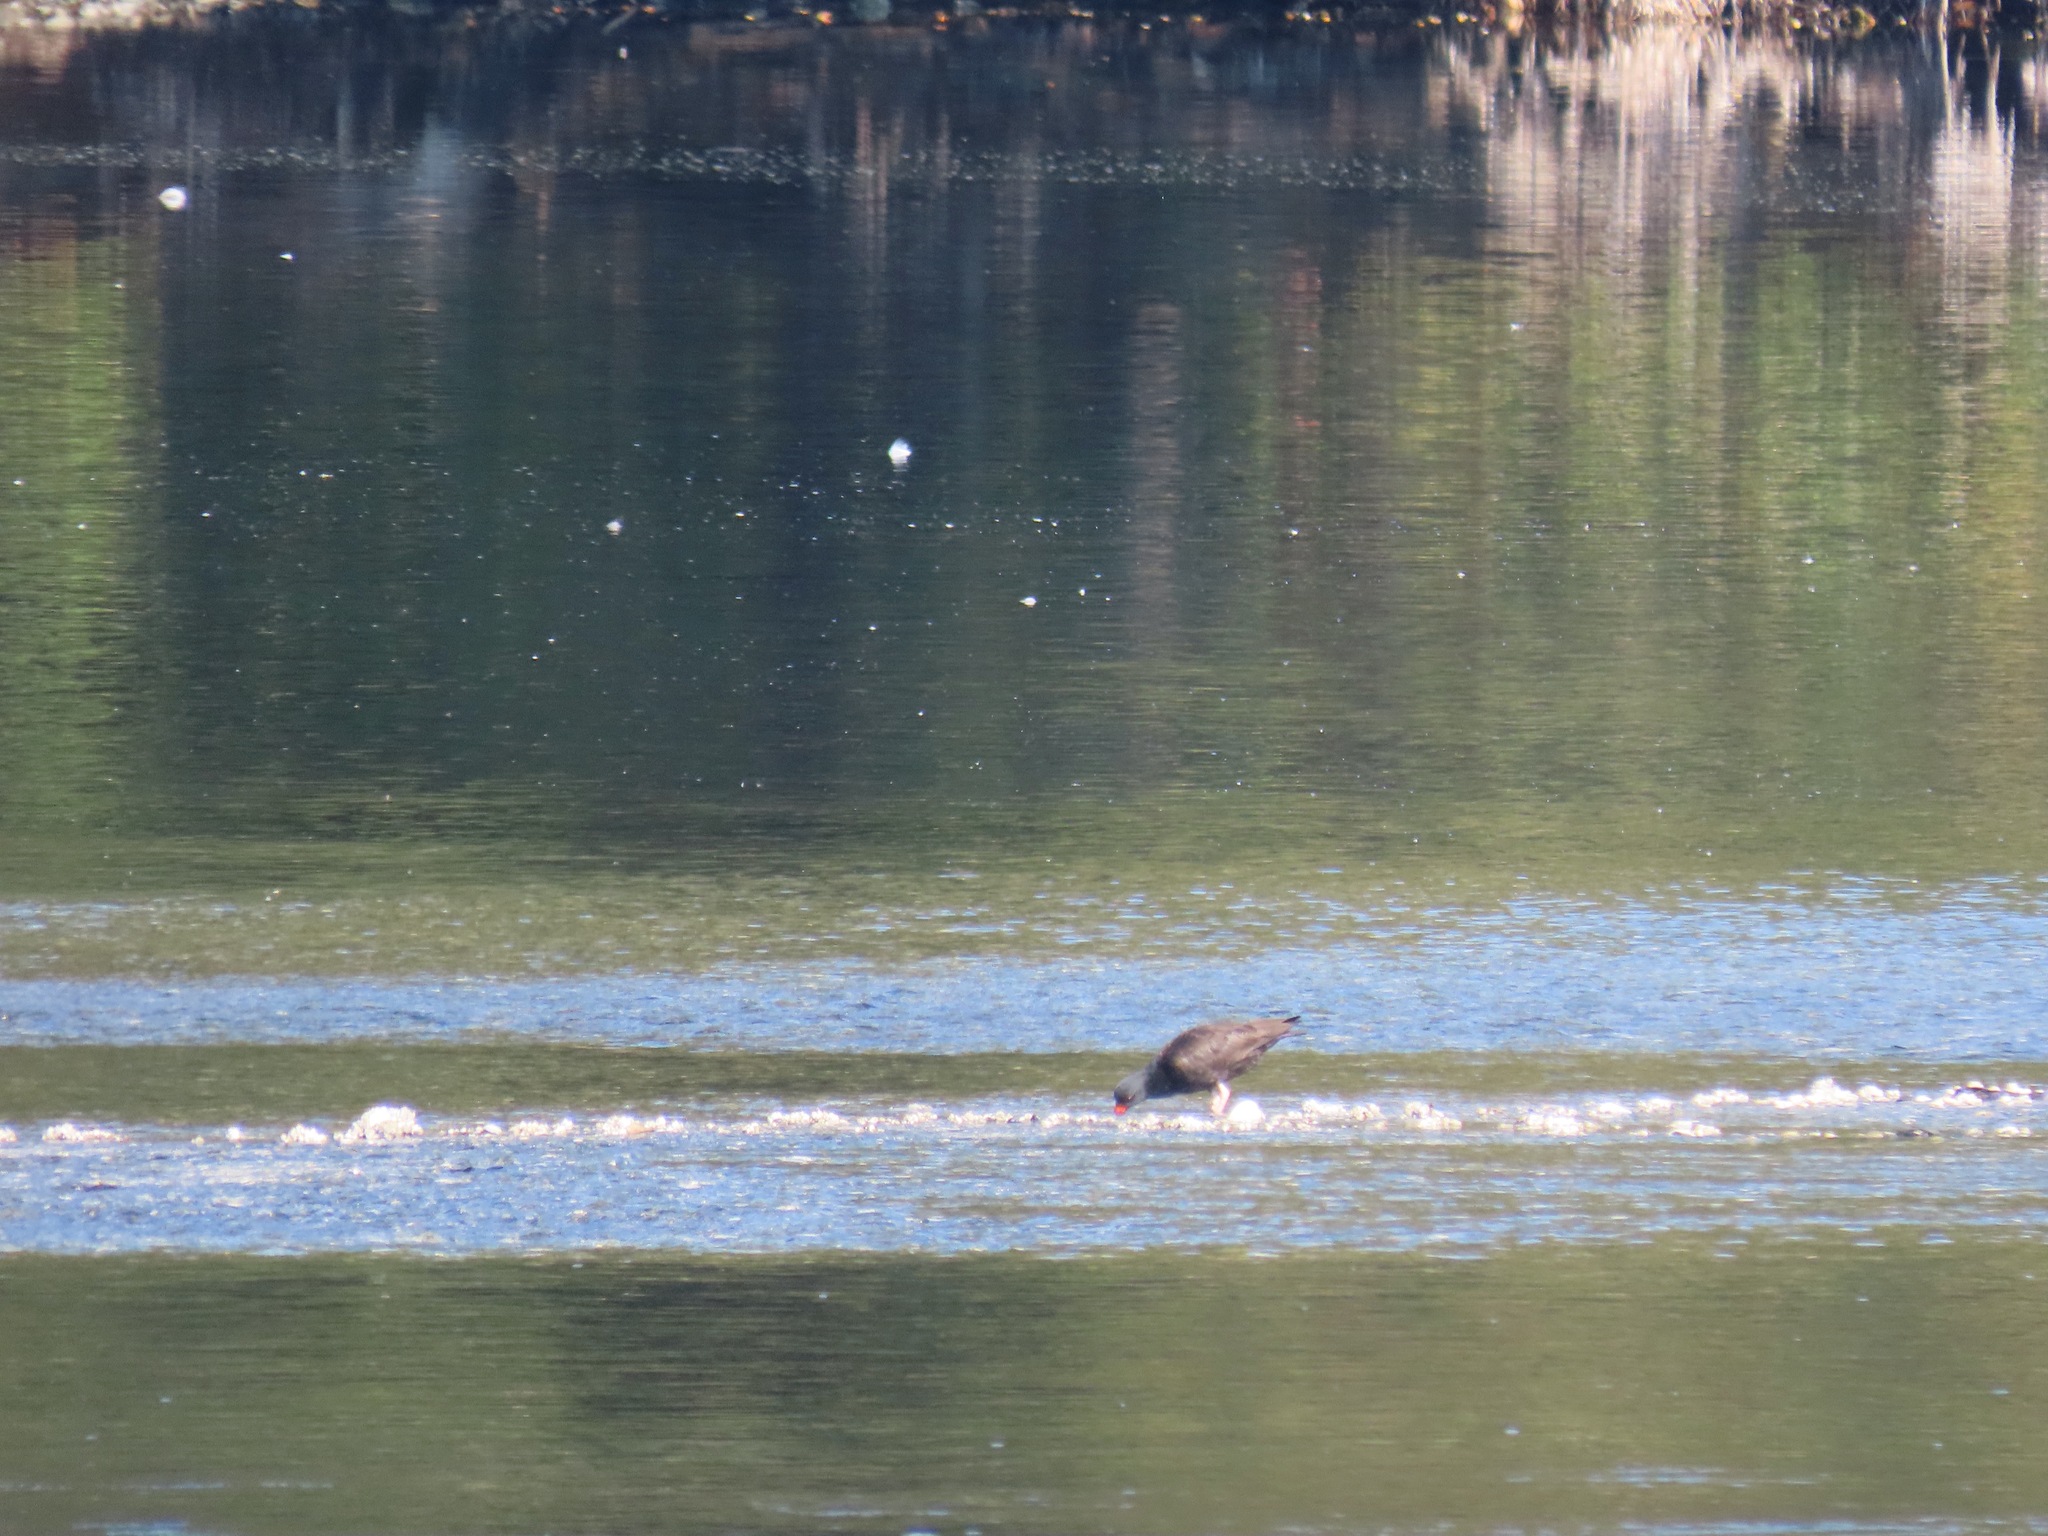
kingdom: Animalia
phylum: Chordata
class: Aves
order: Charadriiformes
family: Haematopodidae
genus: Haematopus
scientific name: Haematopus bachmani
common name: Black oystercatcher
